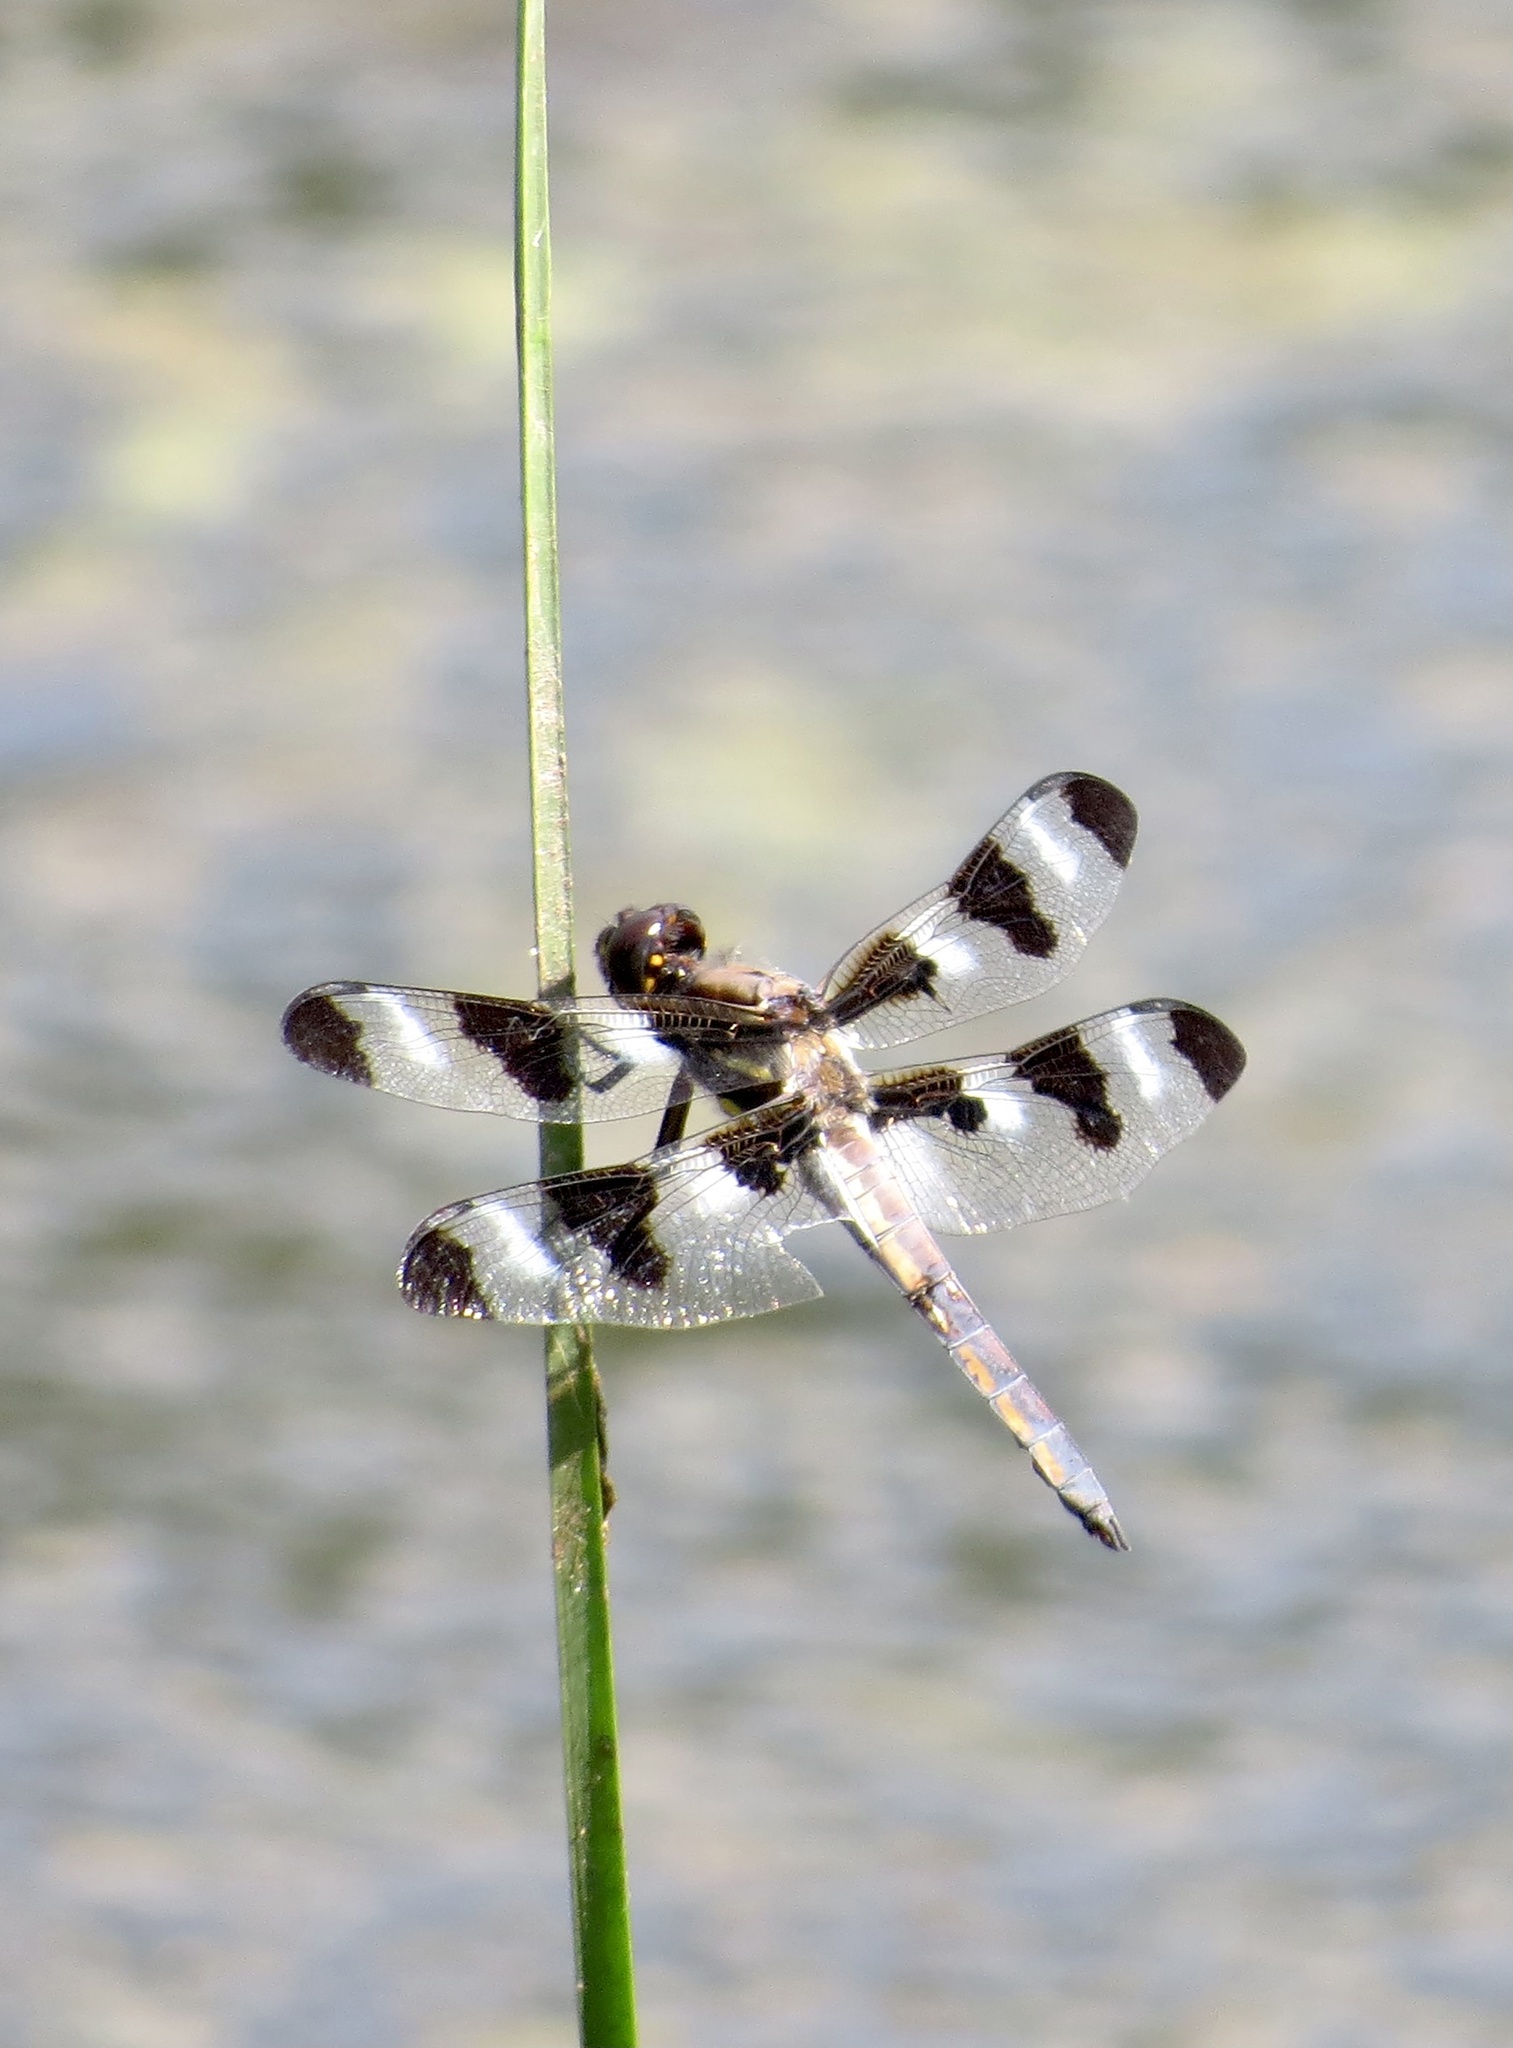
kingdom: Animalia
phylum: Arthropoda
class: Insecta
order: Odonata
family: Libellulidae
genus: Libellula
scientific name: Libellula pulchella
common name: Twelve-spotted skimmer
